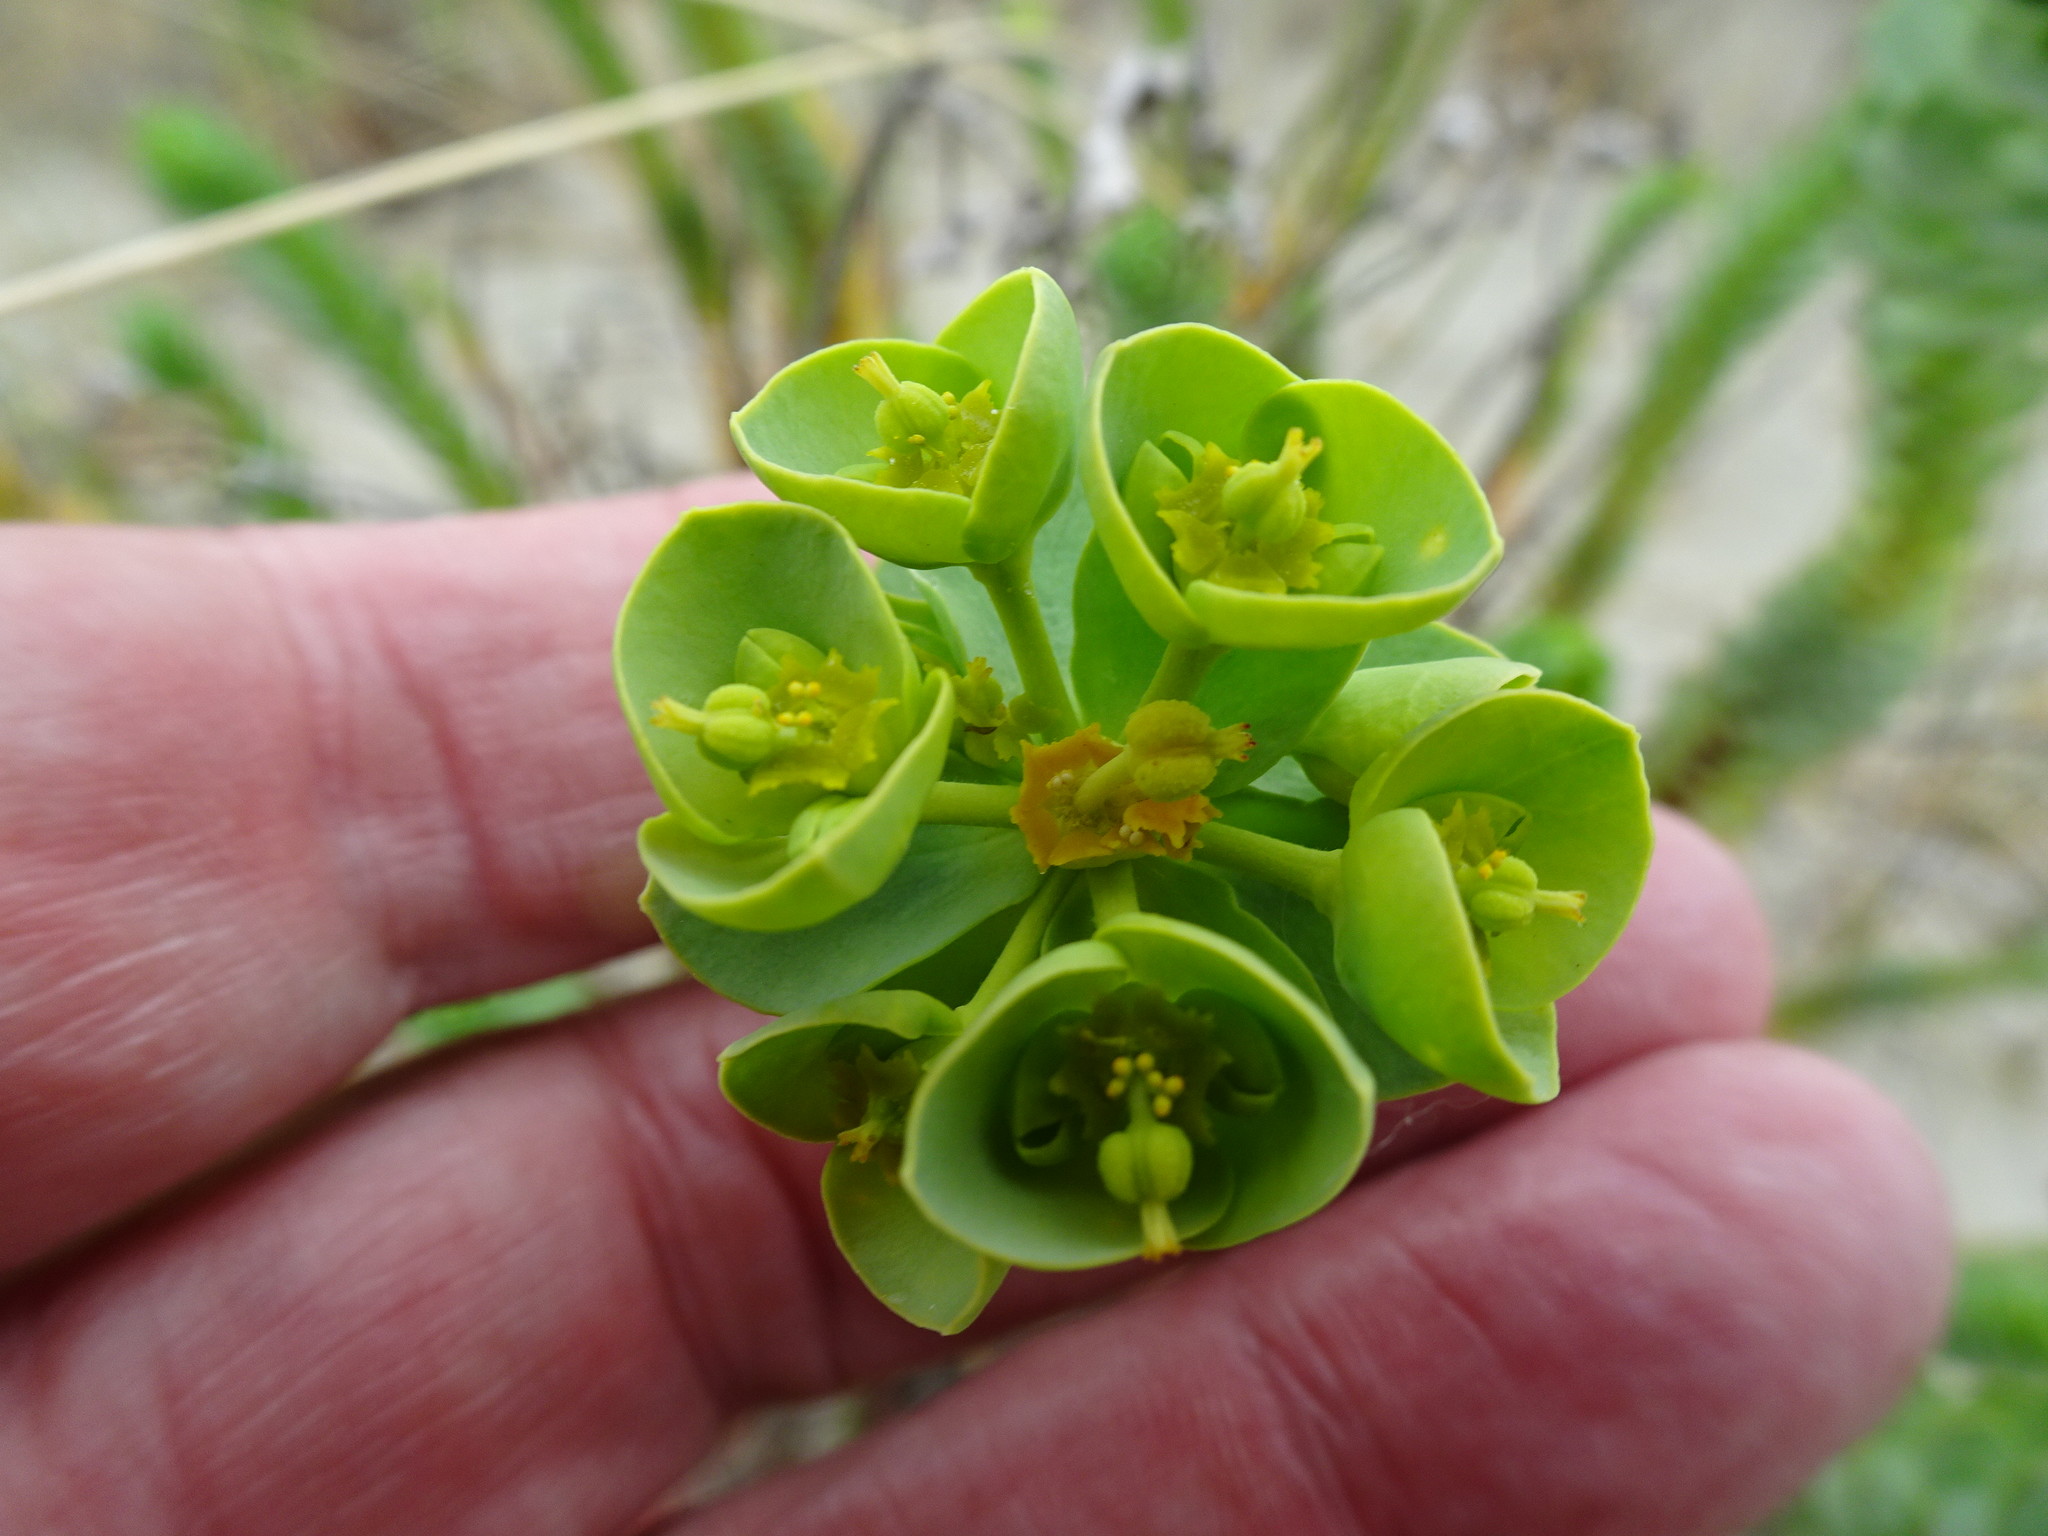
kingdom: Plantae
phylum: Tracheophyta
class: Magnoliopsida
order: Malpighiales
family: Euphorbiaceae
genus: Euphorbia
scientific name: Euphorbia paralias
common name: Sea spurge
